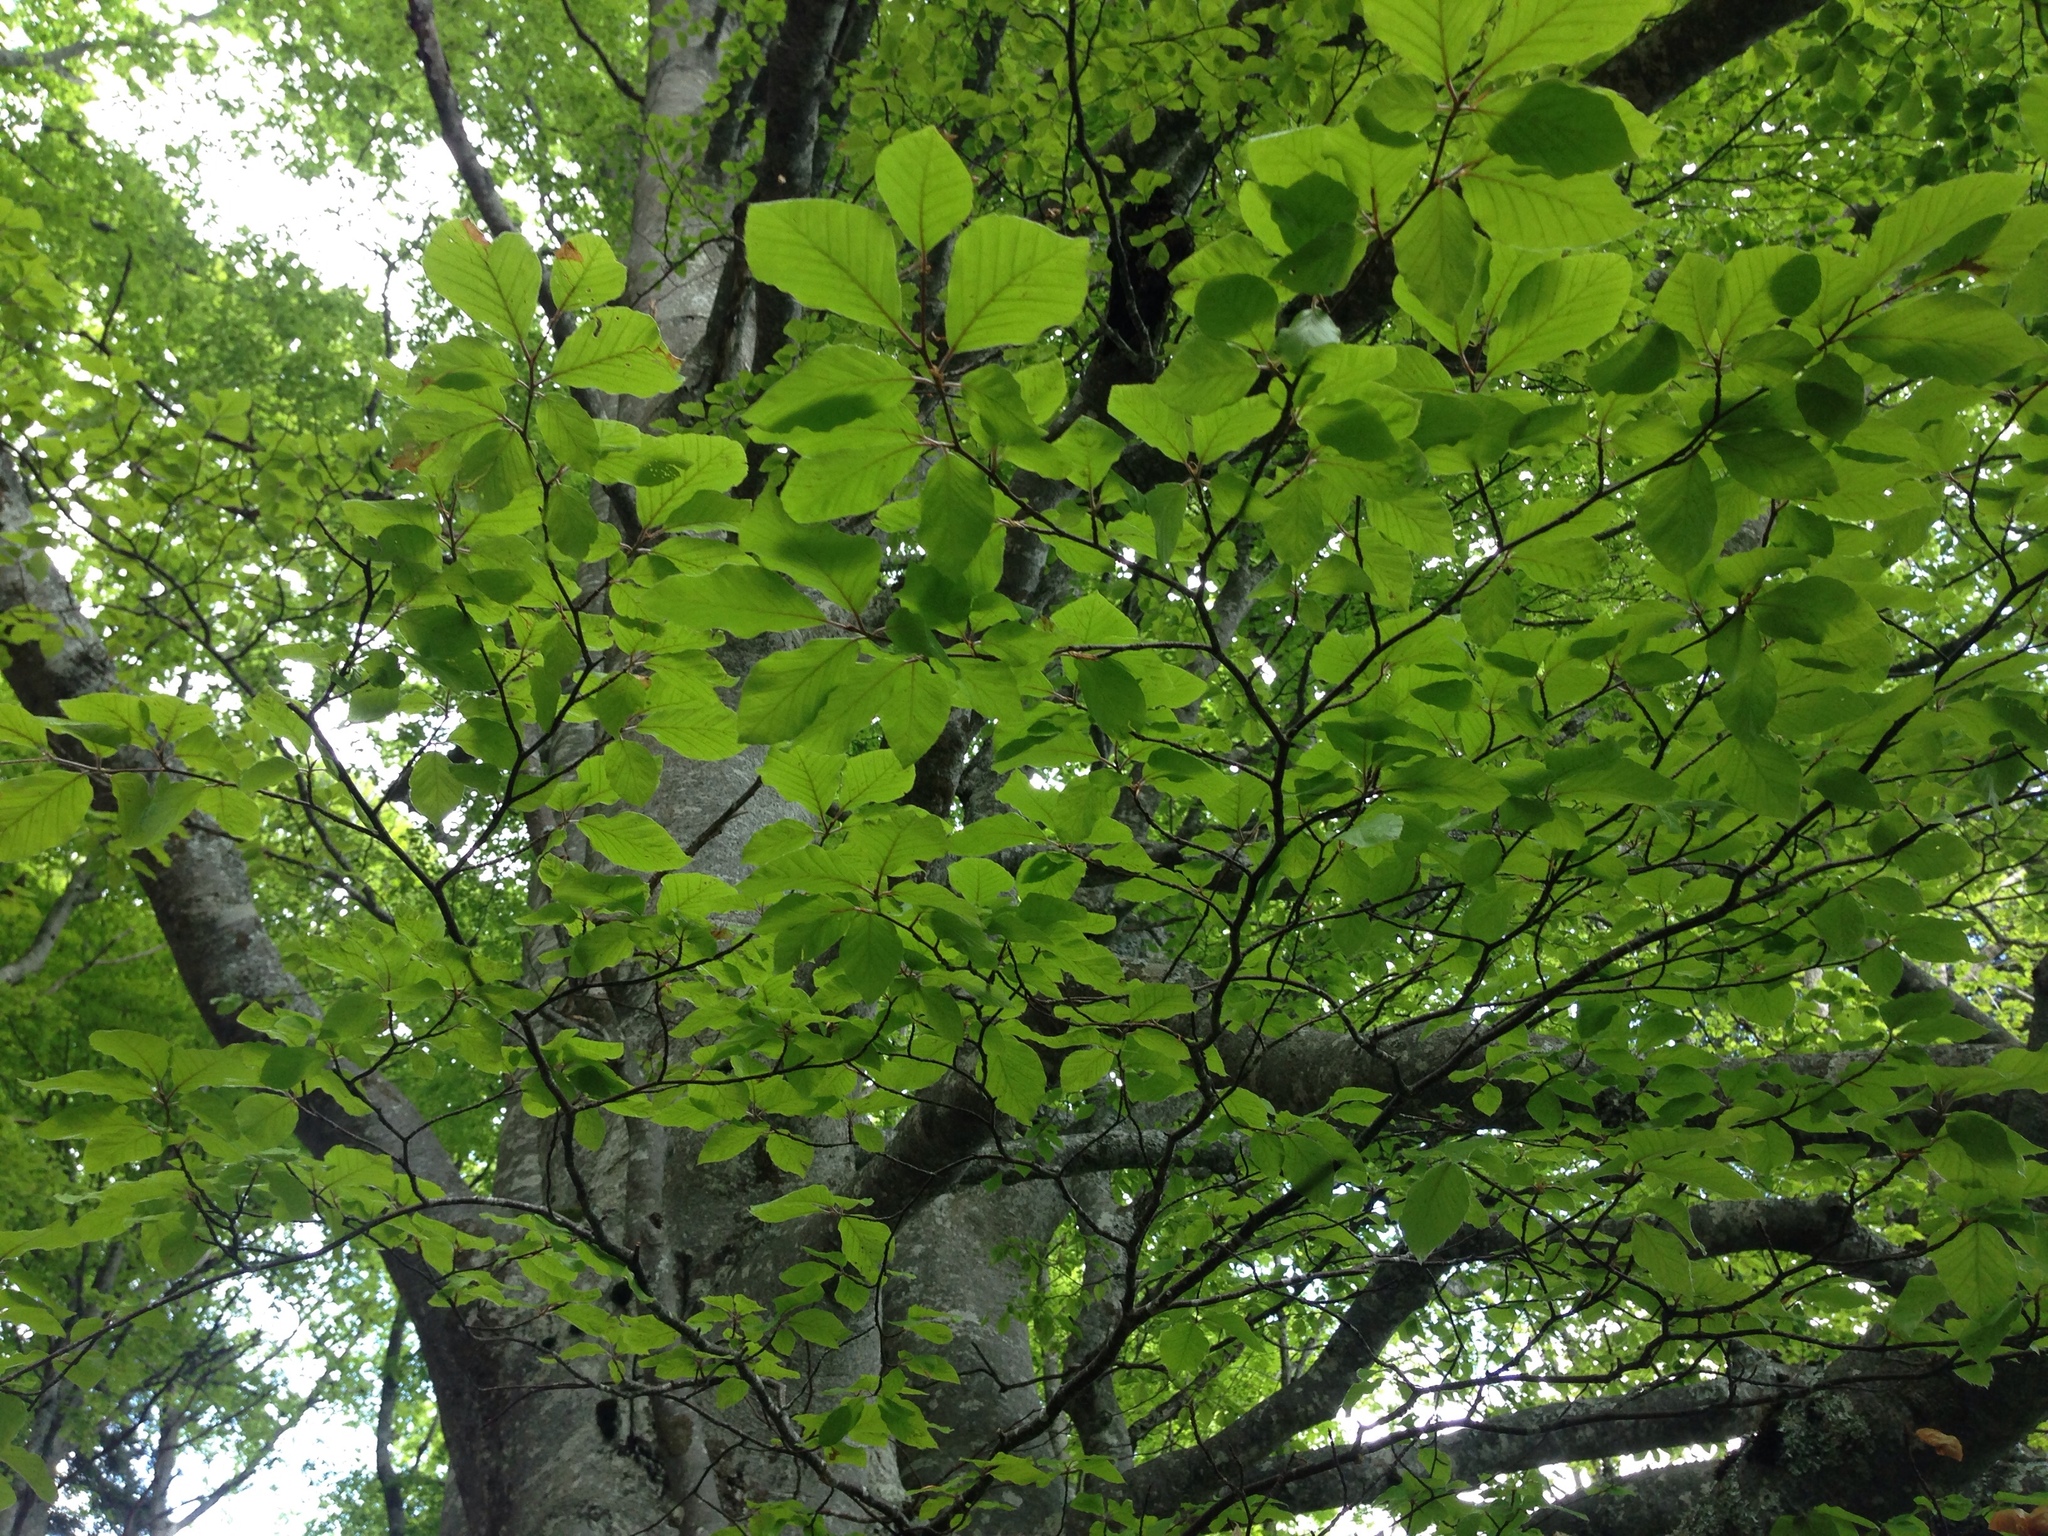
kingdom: Plantae
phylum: Tracheophyta
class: Magnoliopsida
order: Fagales
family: Fagaceae
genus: Fagus
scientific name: Fagus sylvatica
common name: Beech
